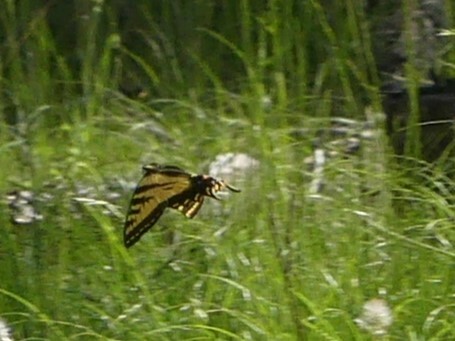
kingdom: Animalia
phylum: Arthropoda
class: Insecta
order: Lepidoptera
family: Papilionidae
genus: Papilio
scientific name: Papilio rutulus
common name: Western tiger swallowtail
